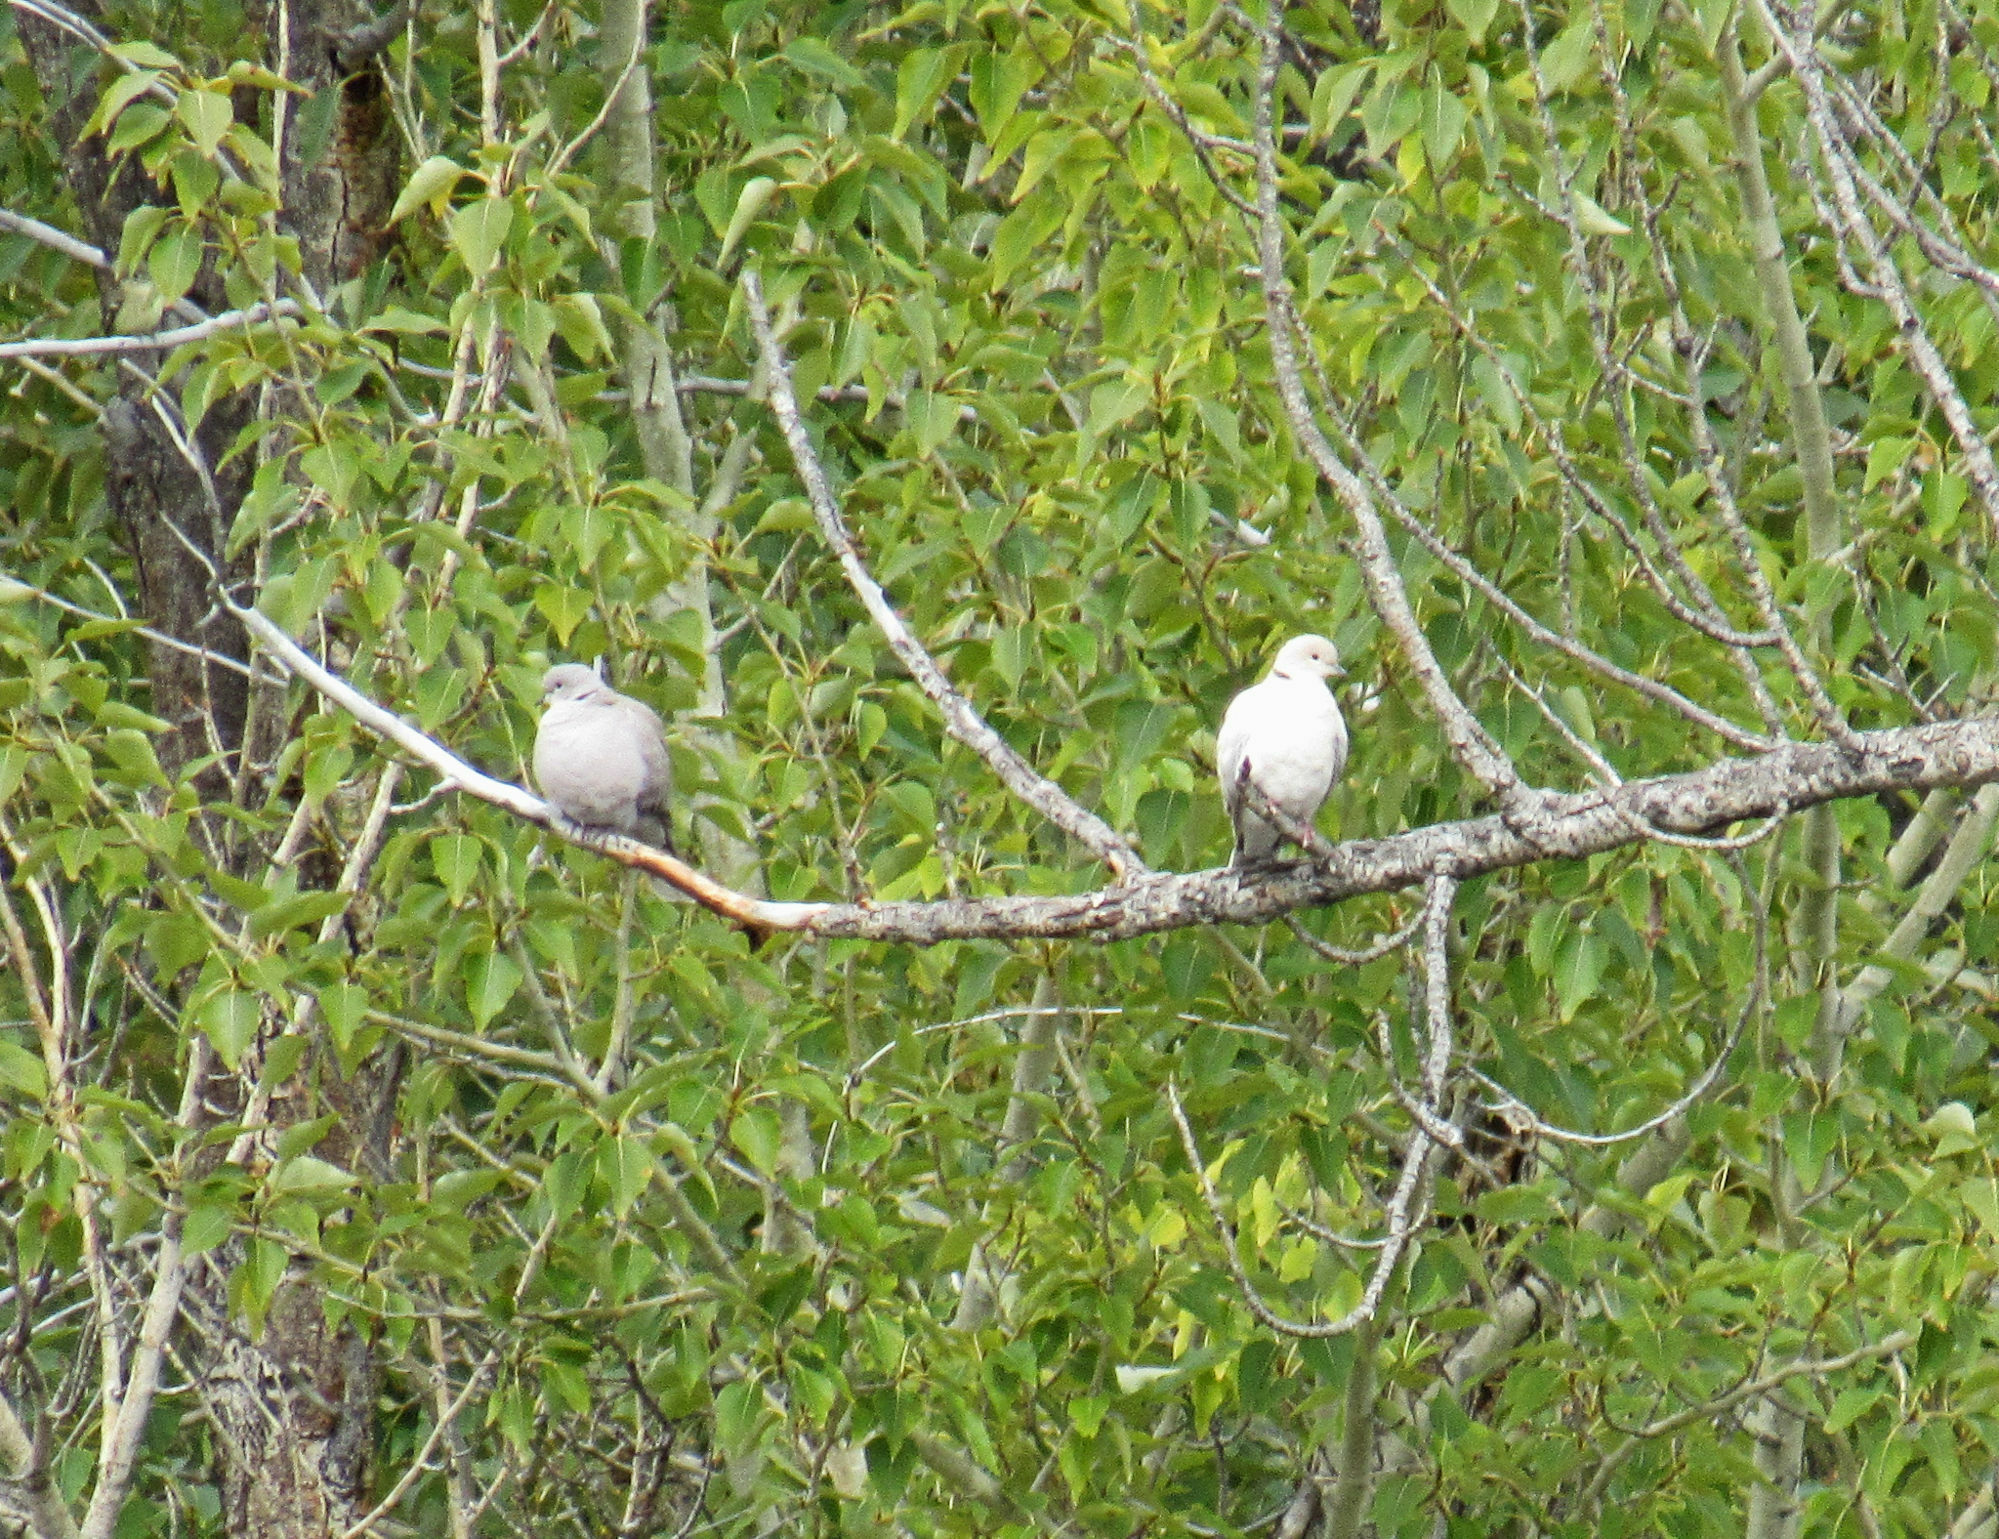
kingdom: Animalia
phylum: Chordata
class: Aves
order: Columbiformes
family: Columbidae
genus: Streptopelia
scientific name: Streptopelia decaocto
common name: Eurasian collared dove
